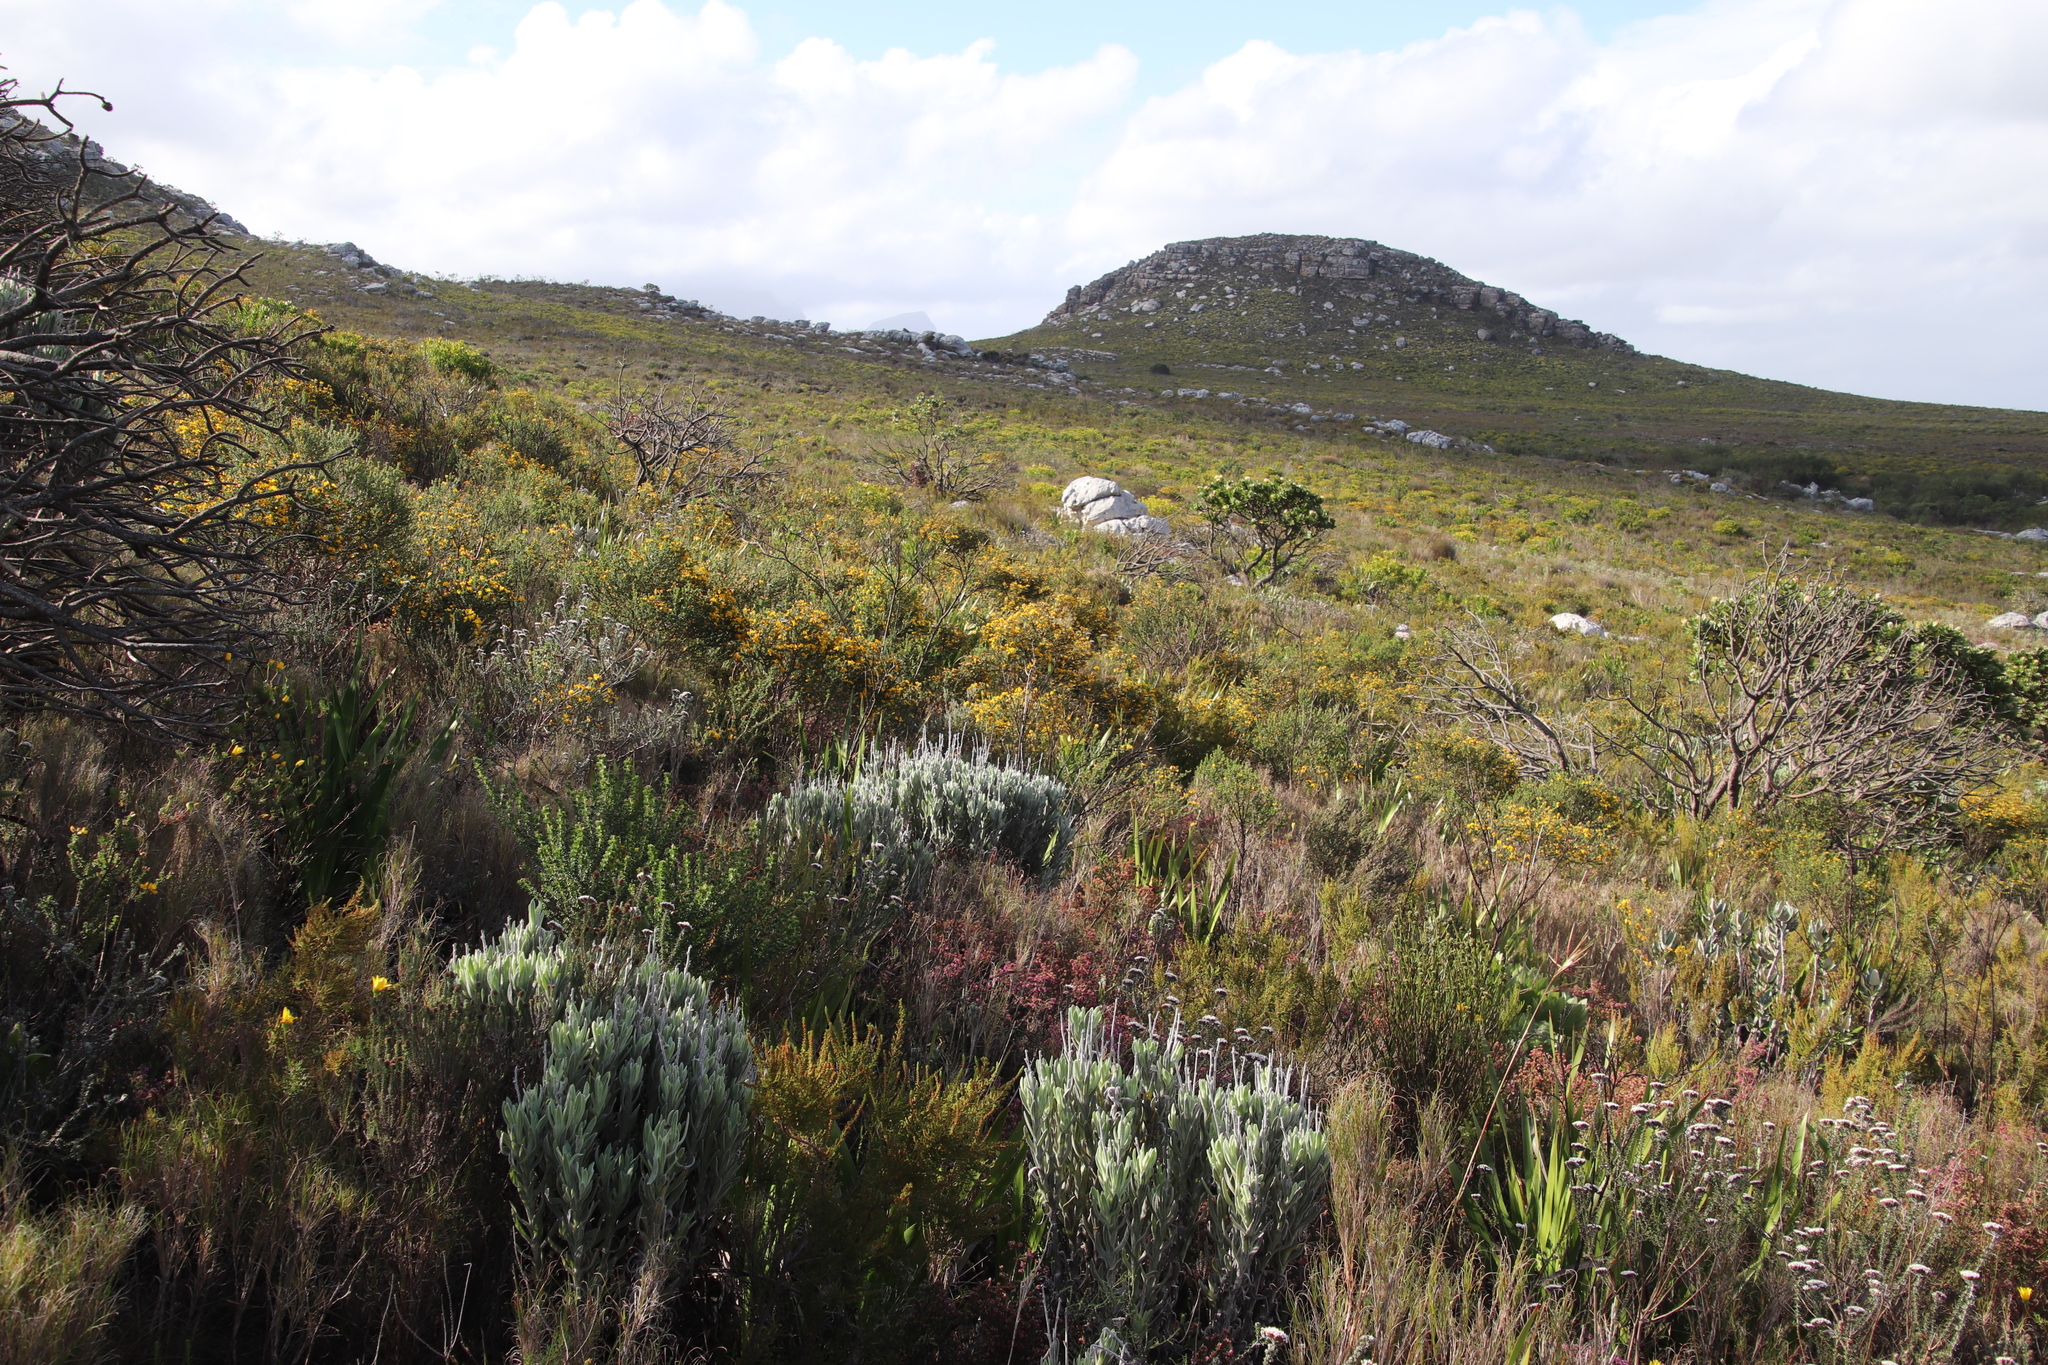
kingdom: Plantae
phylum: Tracheophyta
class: Magnoliopsida
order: Fabales
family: Fabaceae
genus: Aspalathus
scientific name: Aspalathus carnosa
